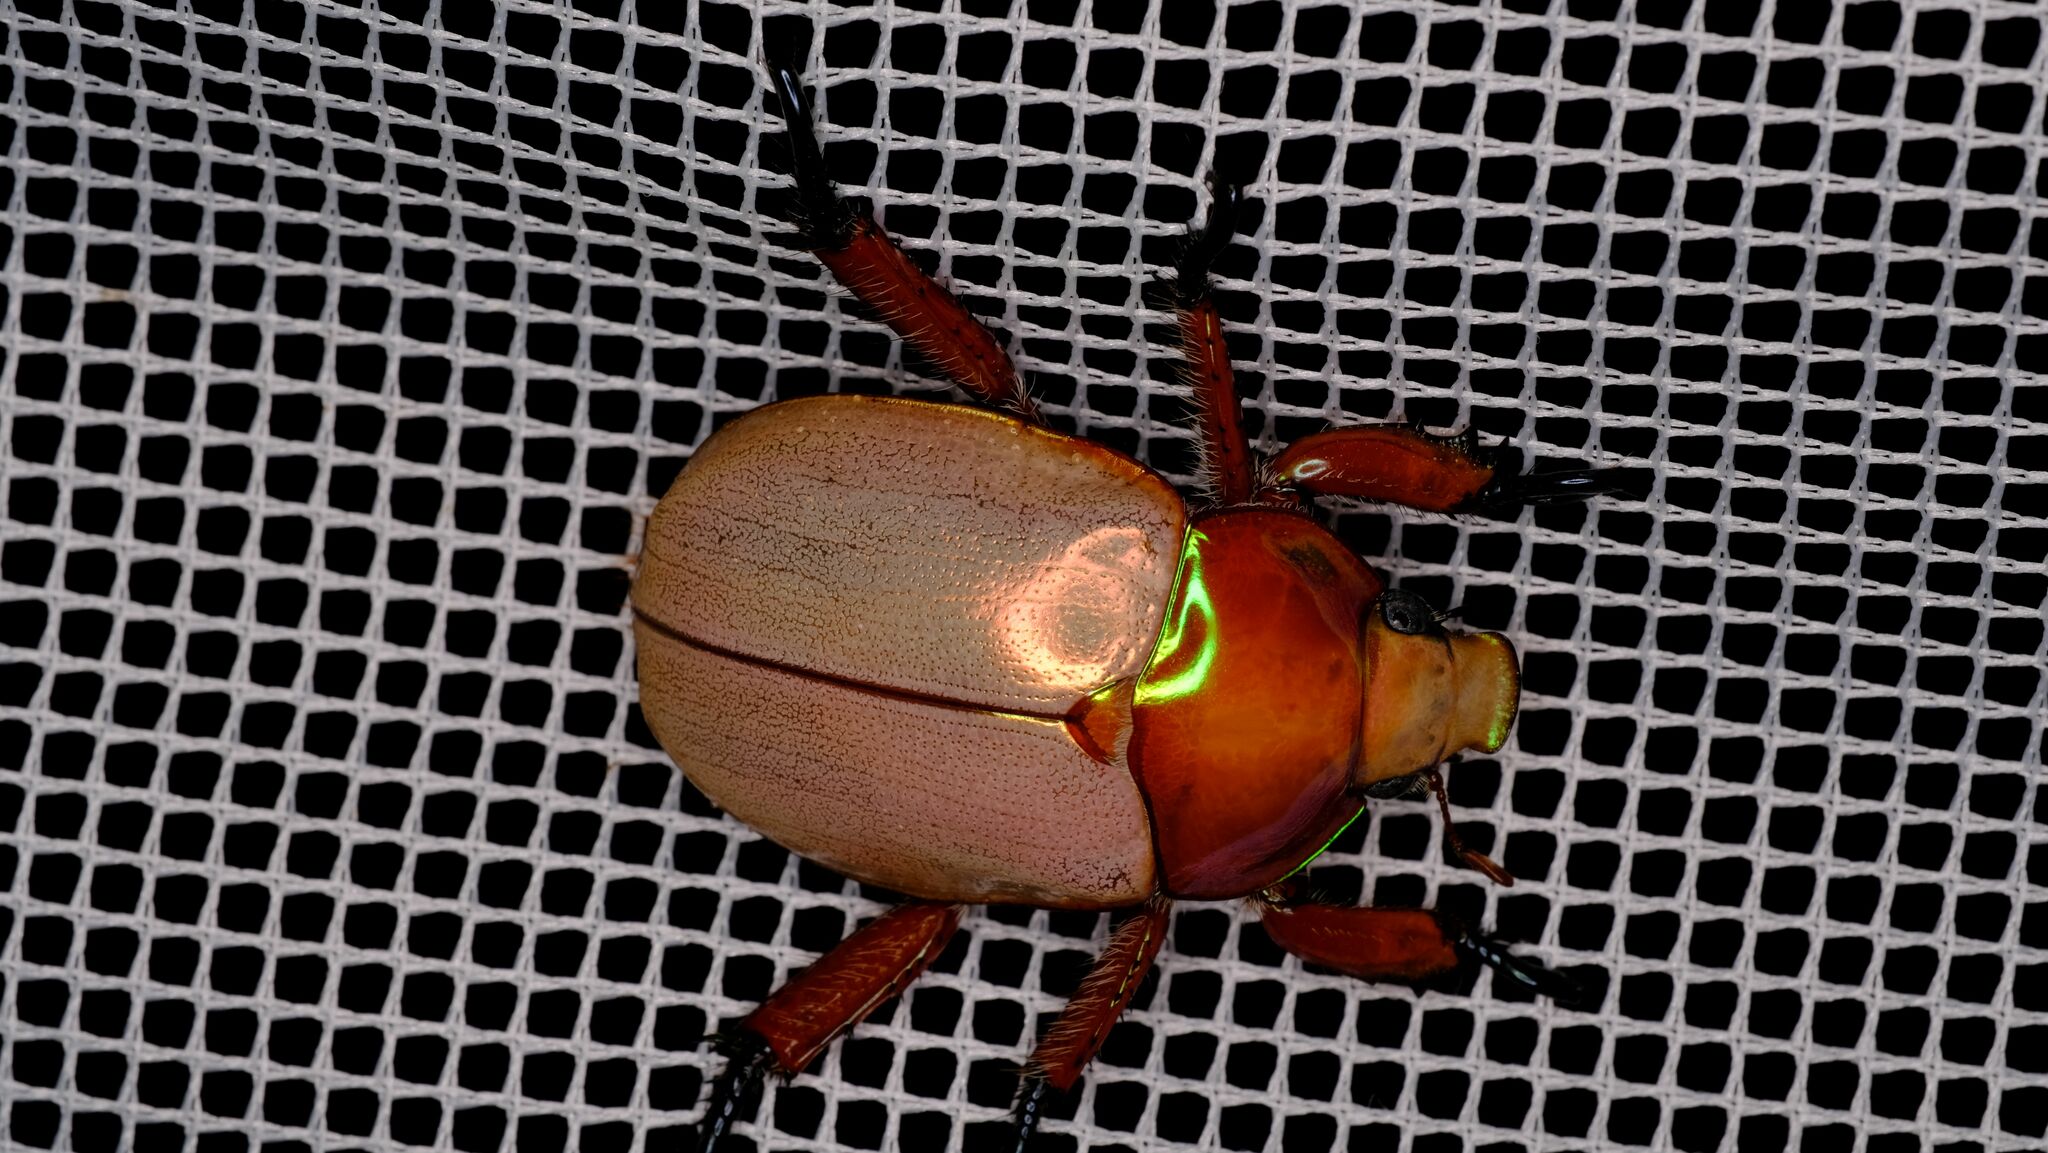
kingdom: Animalia
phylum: Arthropoda
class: Insecta
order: Coleoptera
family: Scarabaeidae
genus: Anoplognathus
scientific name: Anoplognathus viriditarsis
